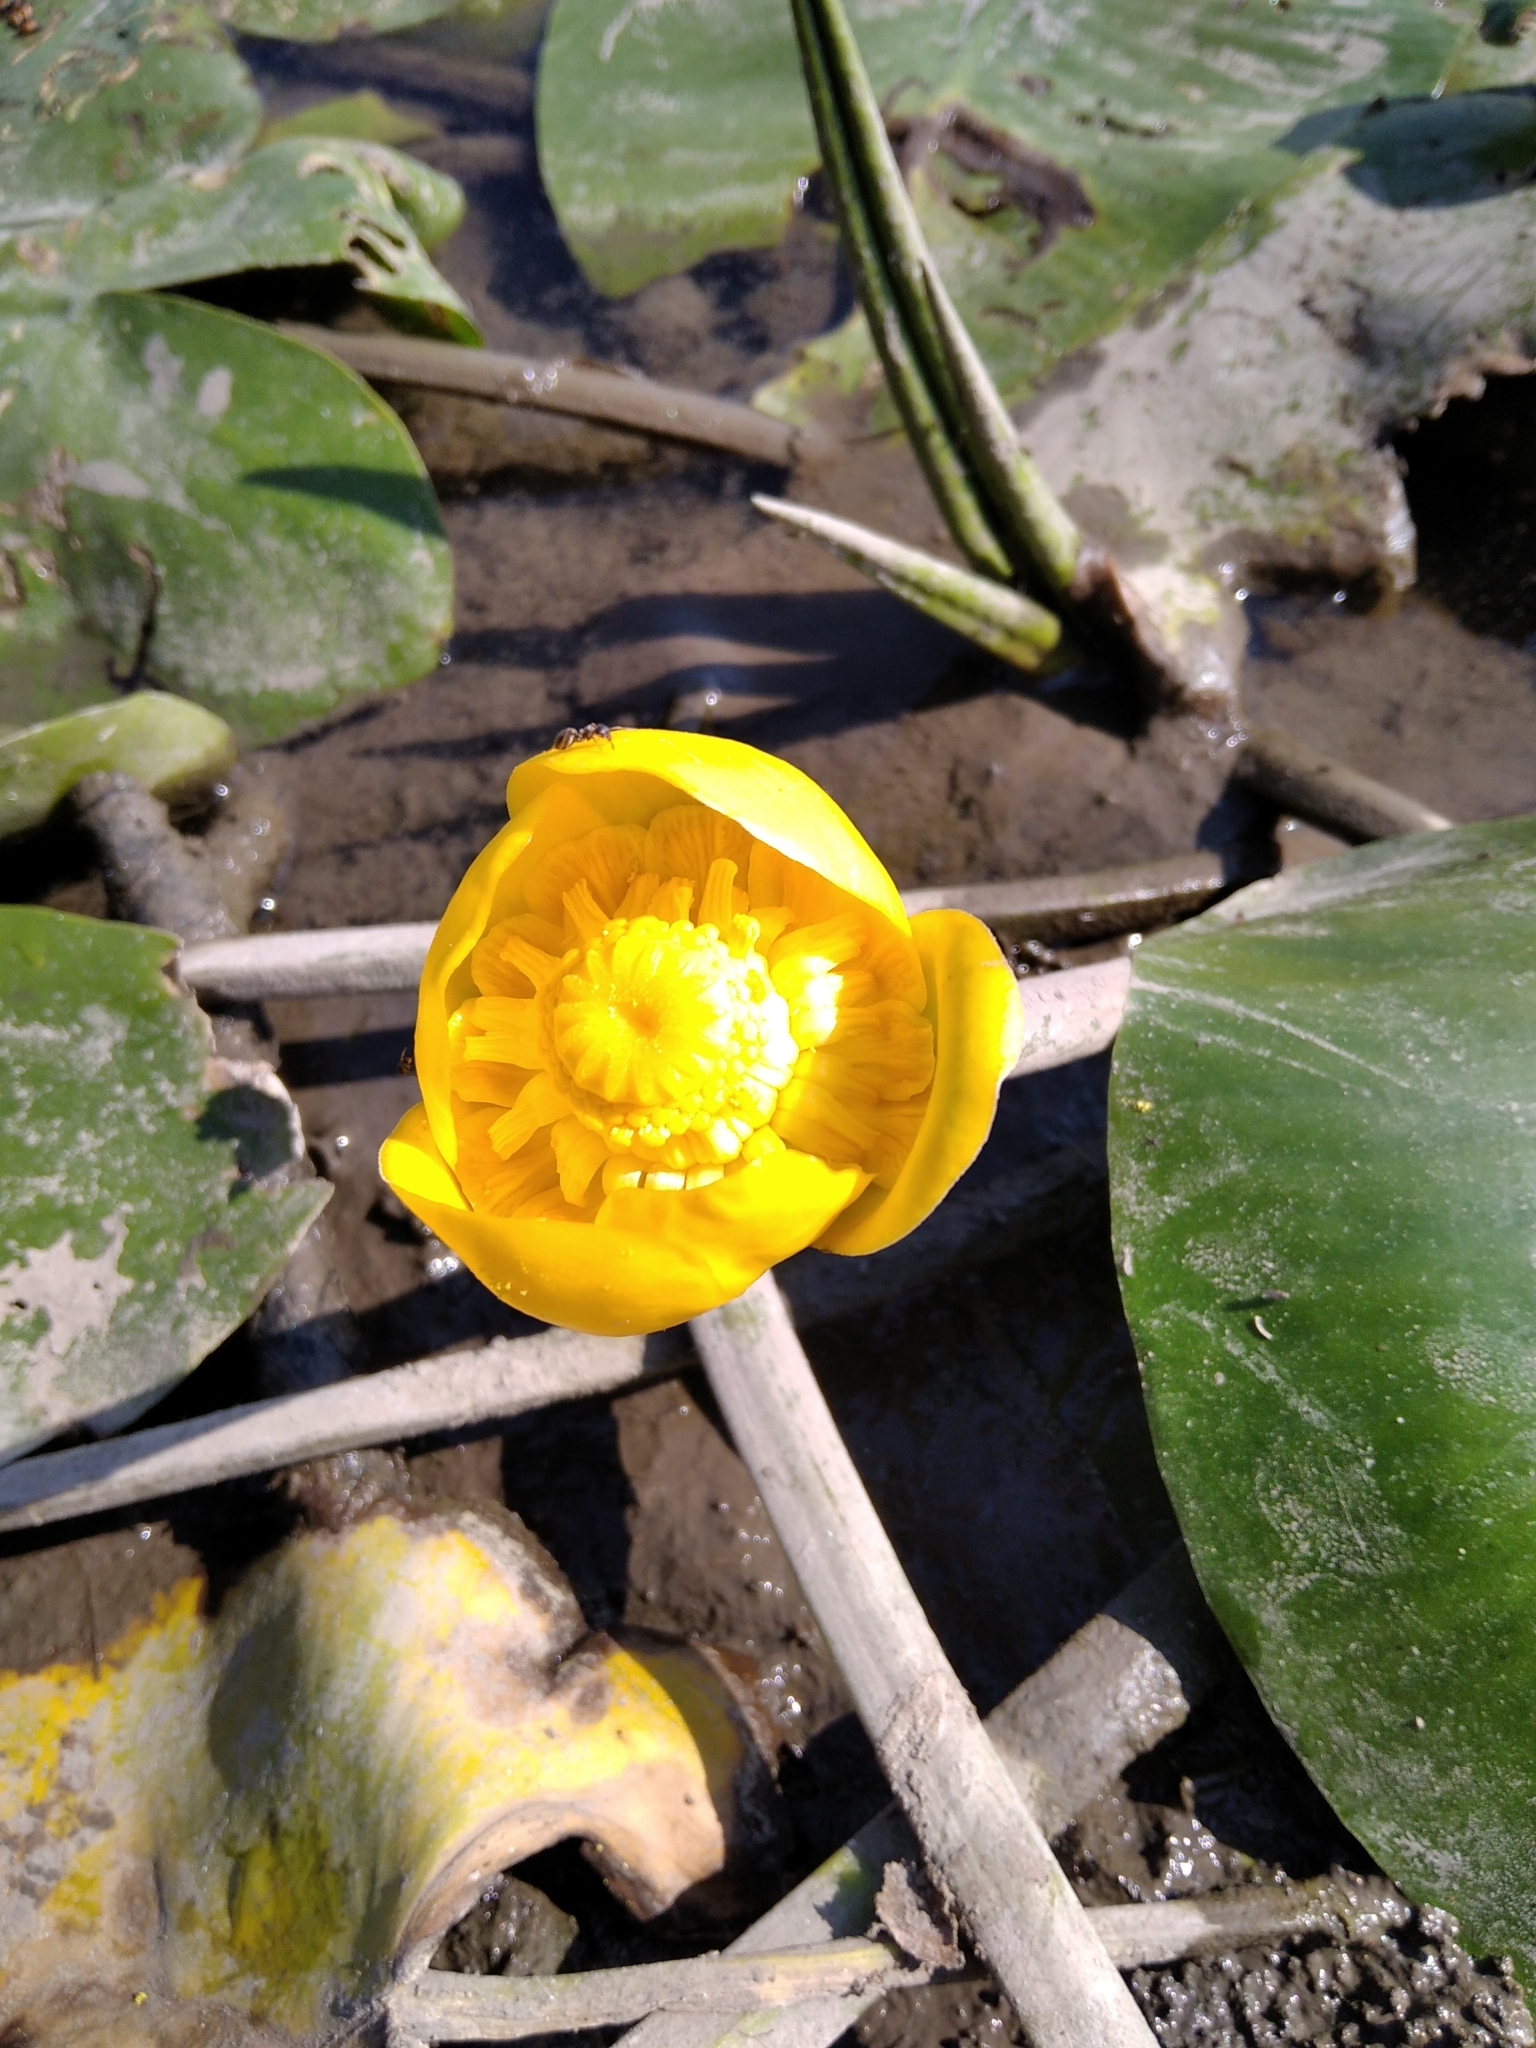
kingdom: Plantae
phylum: Tracheophyta
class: Magnoliopsida
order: Nymphaeales
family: Nymphaeaceae
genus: Nuphar
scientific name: Nuphar lutea
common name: Yellow water-lily
